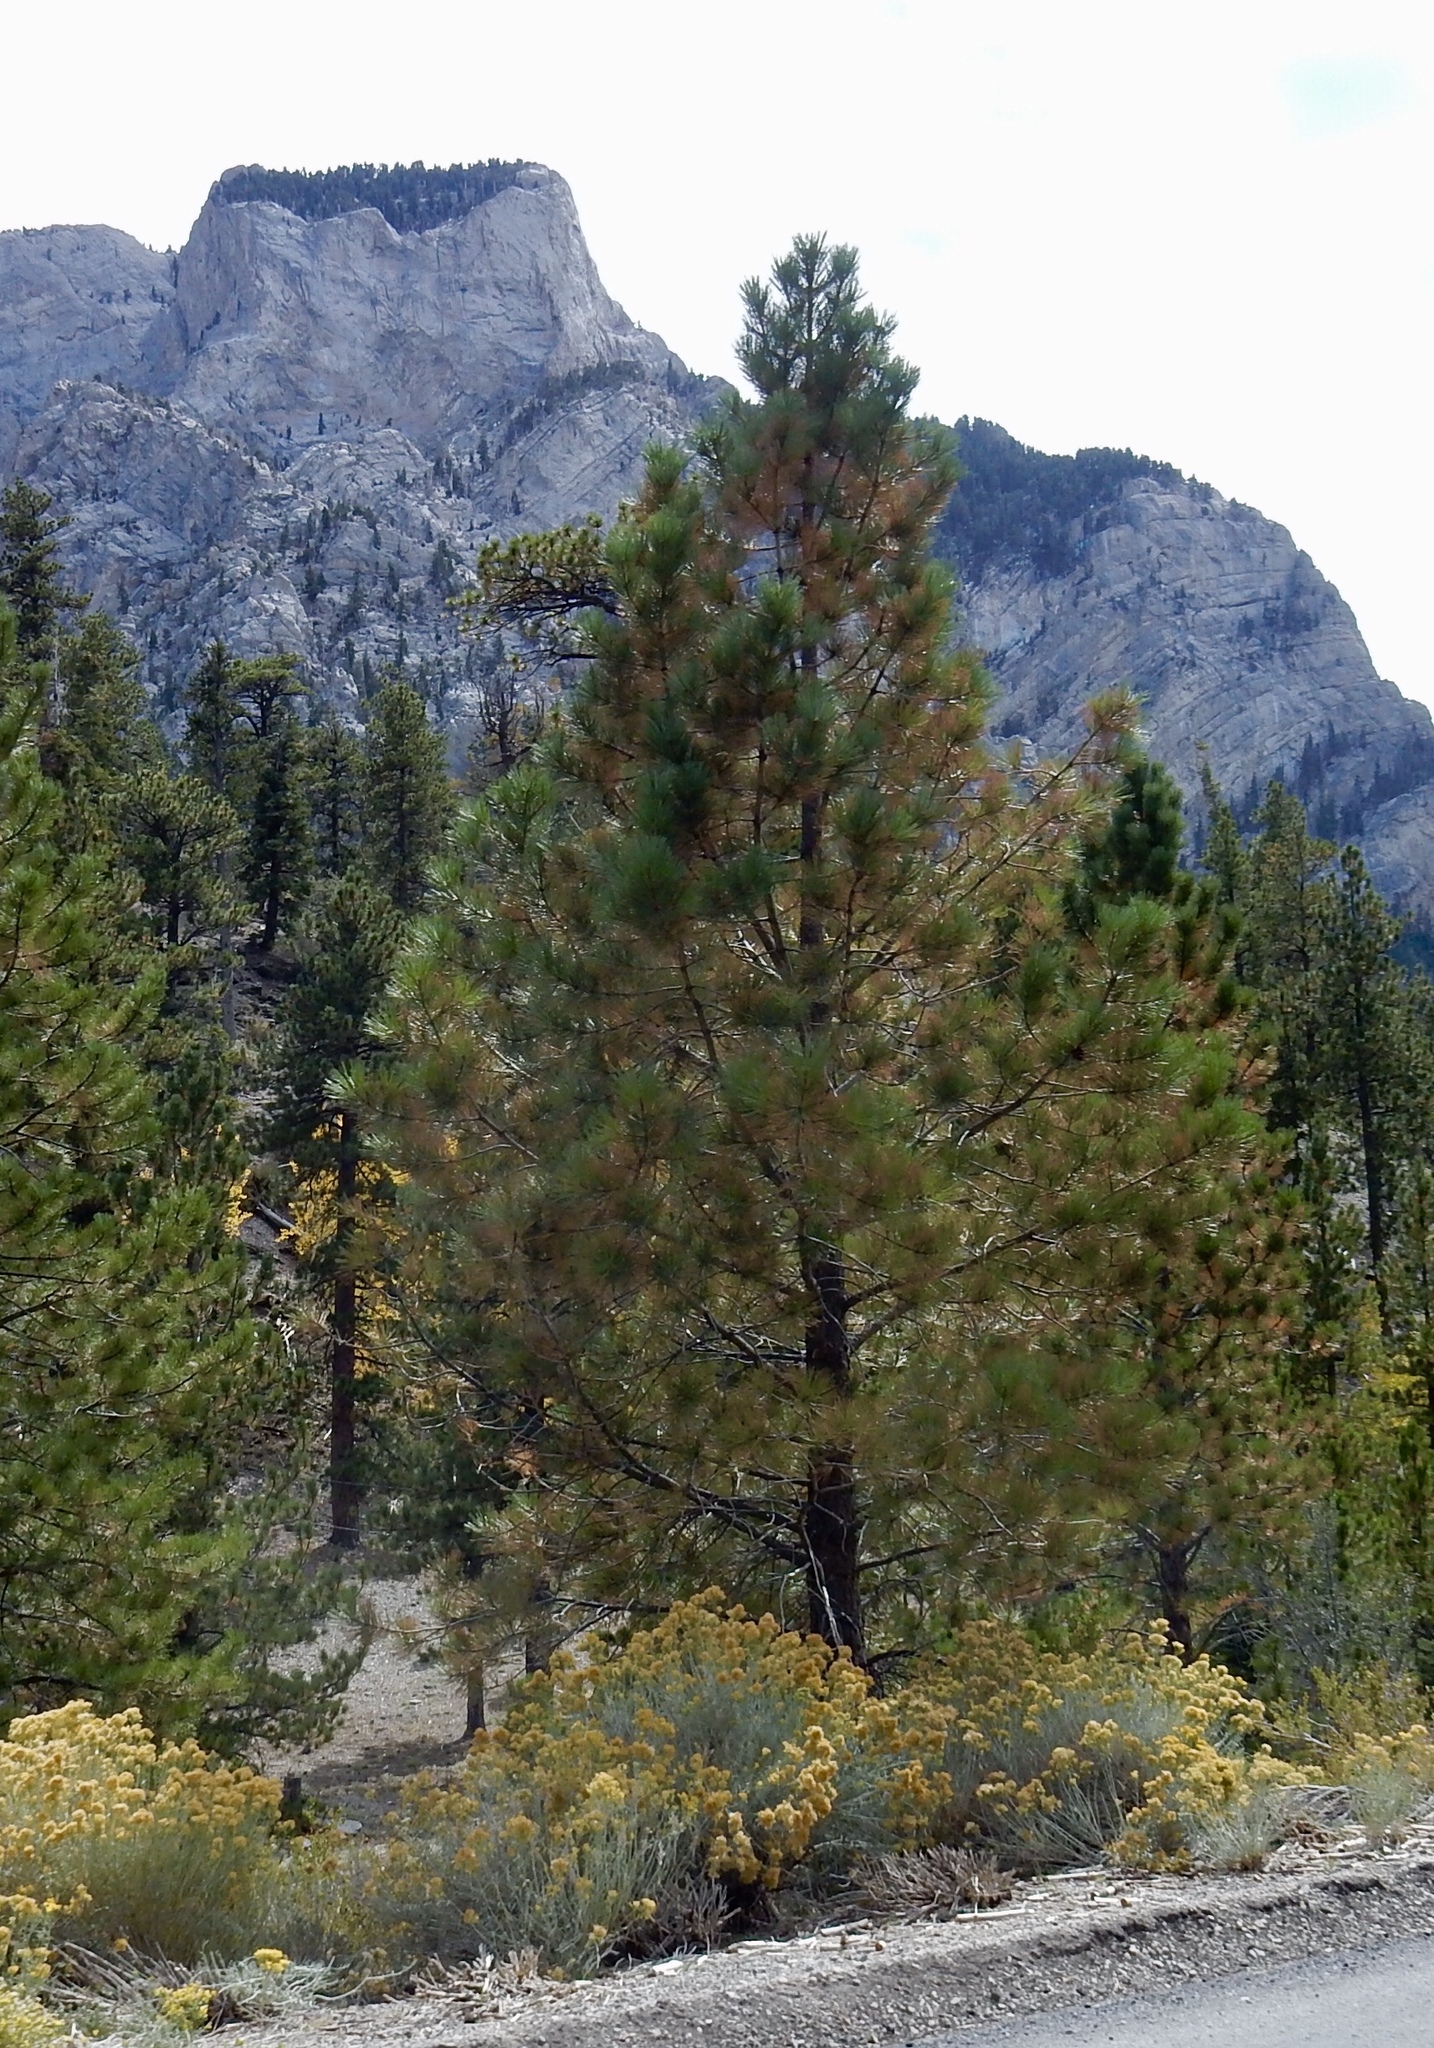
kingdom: Plantae
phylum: Tracheophyta
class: Pinopsida
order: Pinales
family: Pinaceae
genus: Pinus
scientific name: Pinus ponderosa
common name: Western yellow-pine
